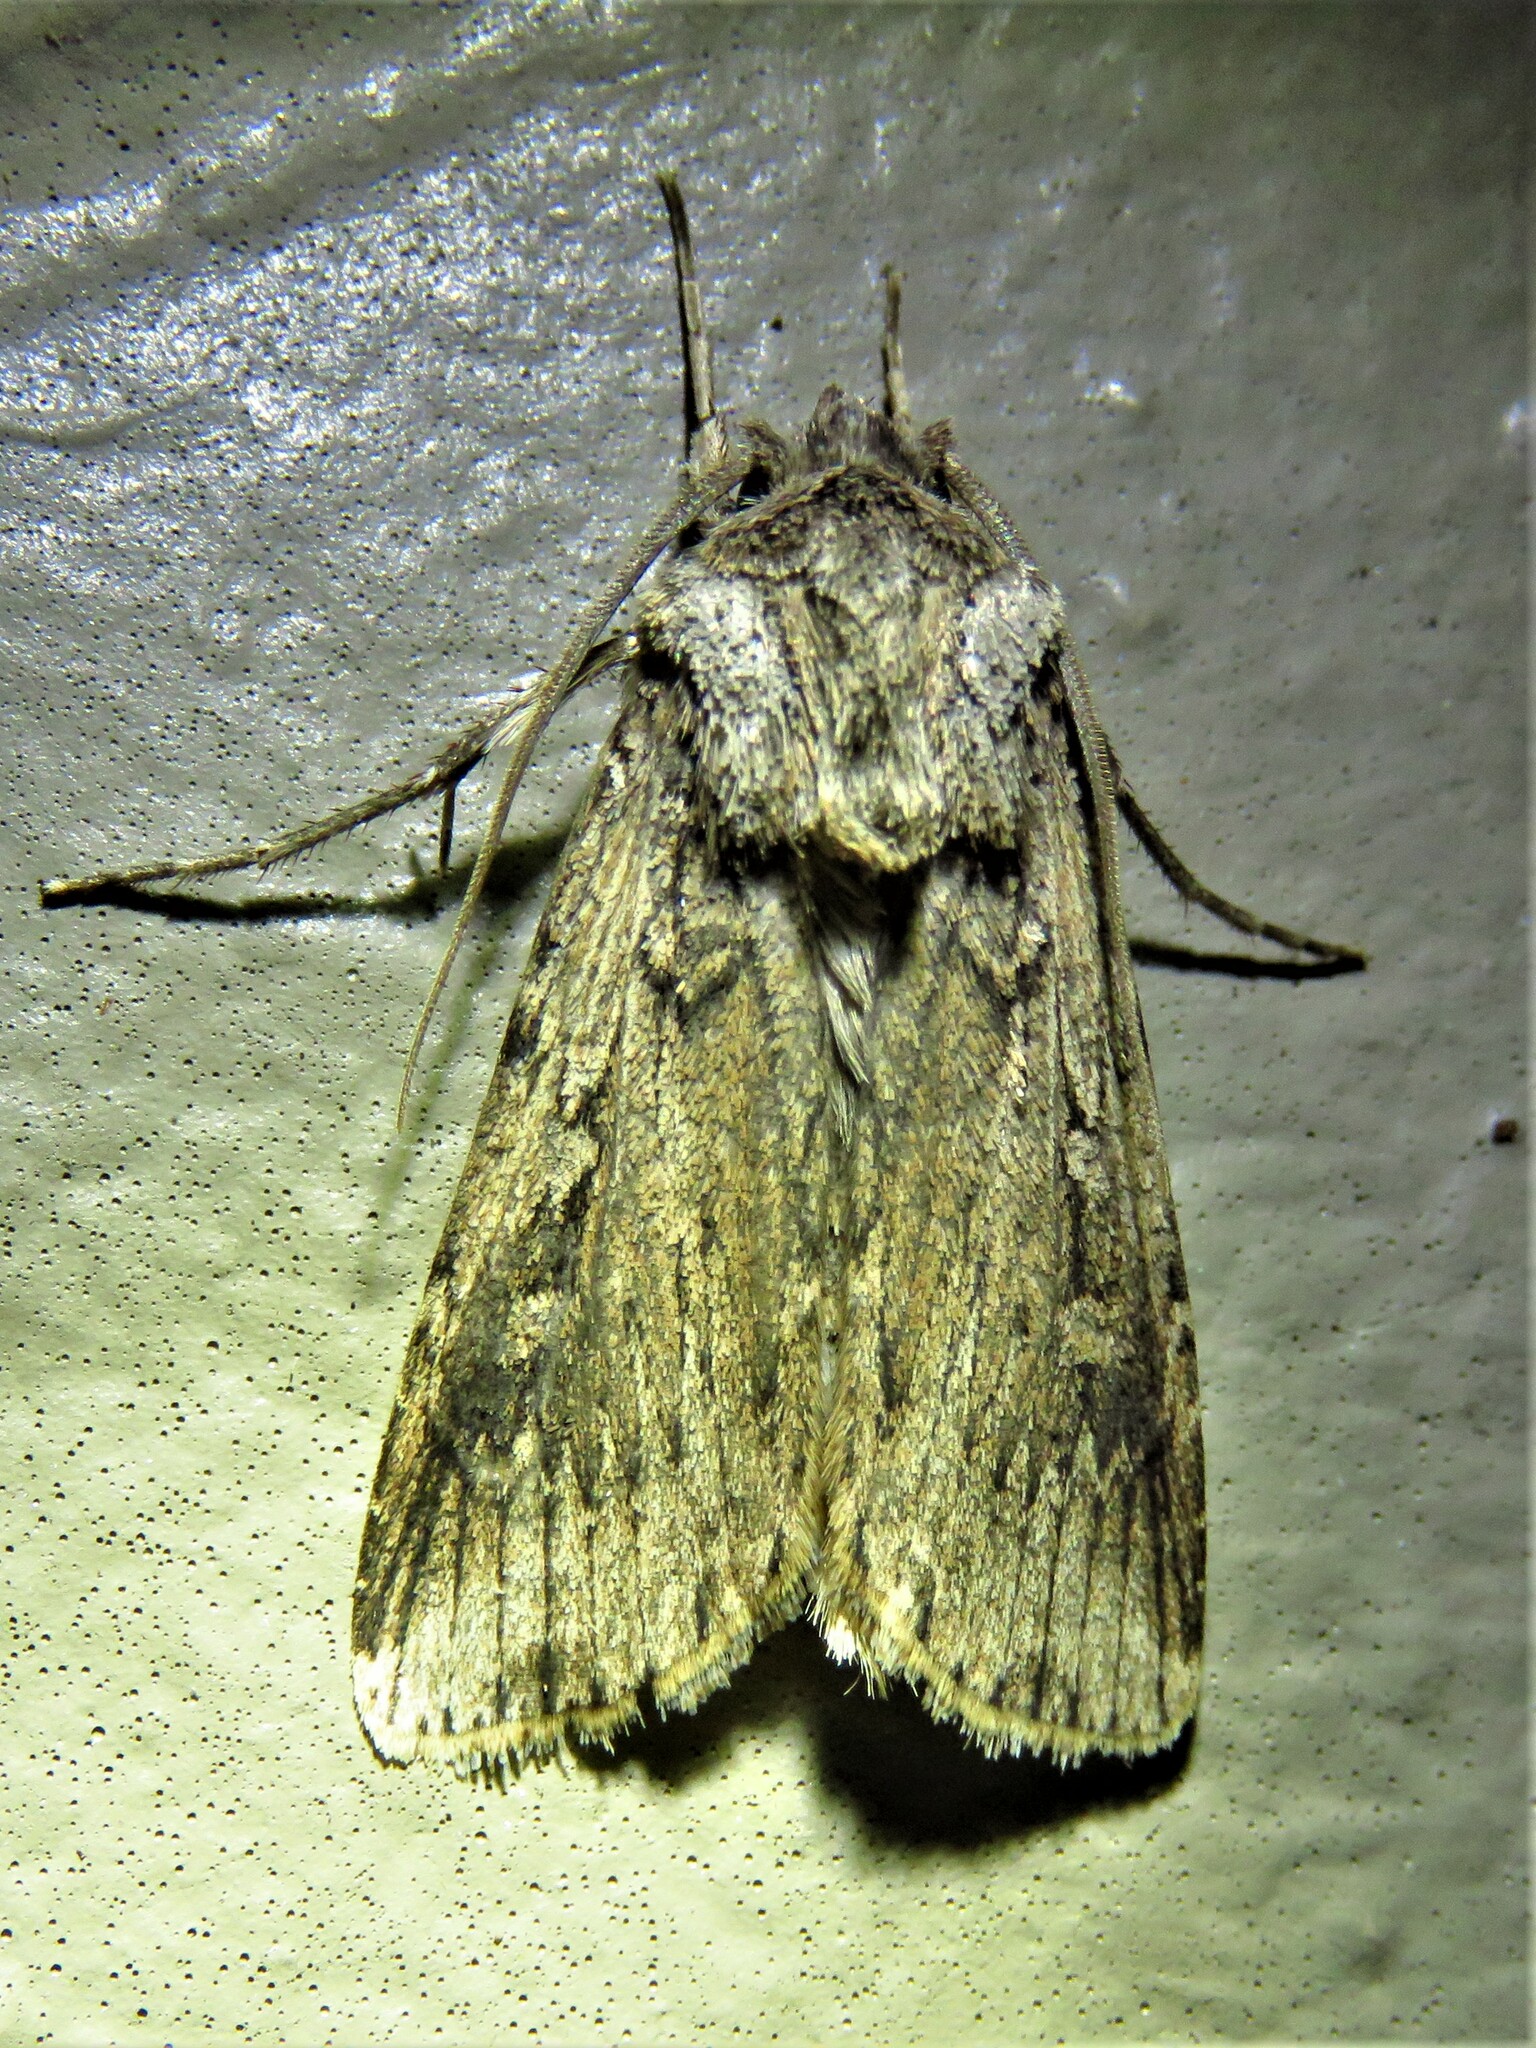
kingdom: Animalia
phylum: Arthropoda
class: Insecta
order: Lepidoptera
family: Noctuidae
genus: Feltia
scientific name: Feltia subterranea
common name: Granulate cutworm
